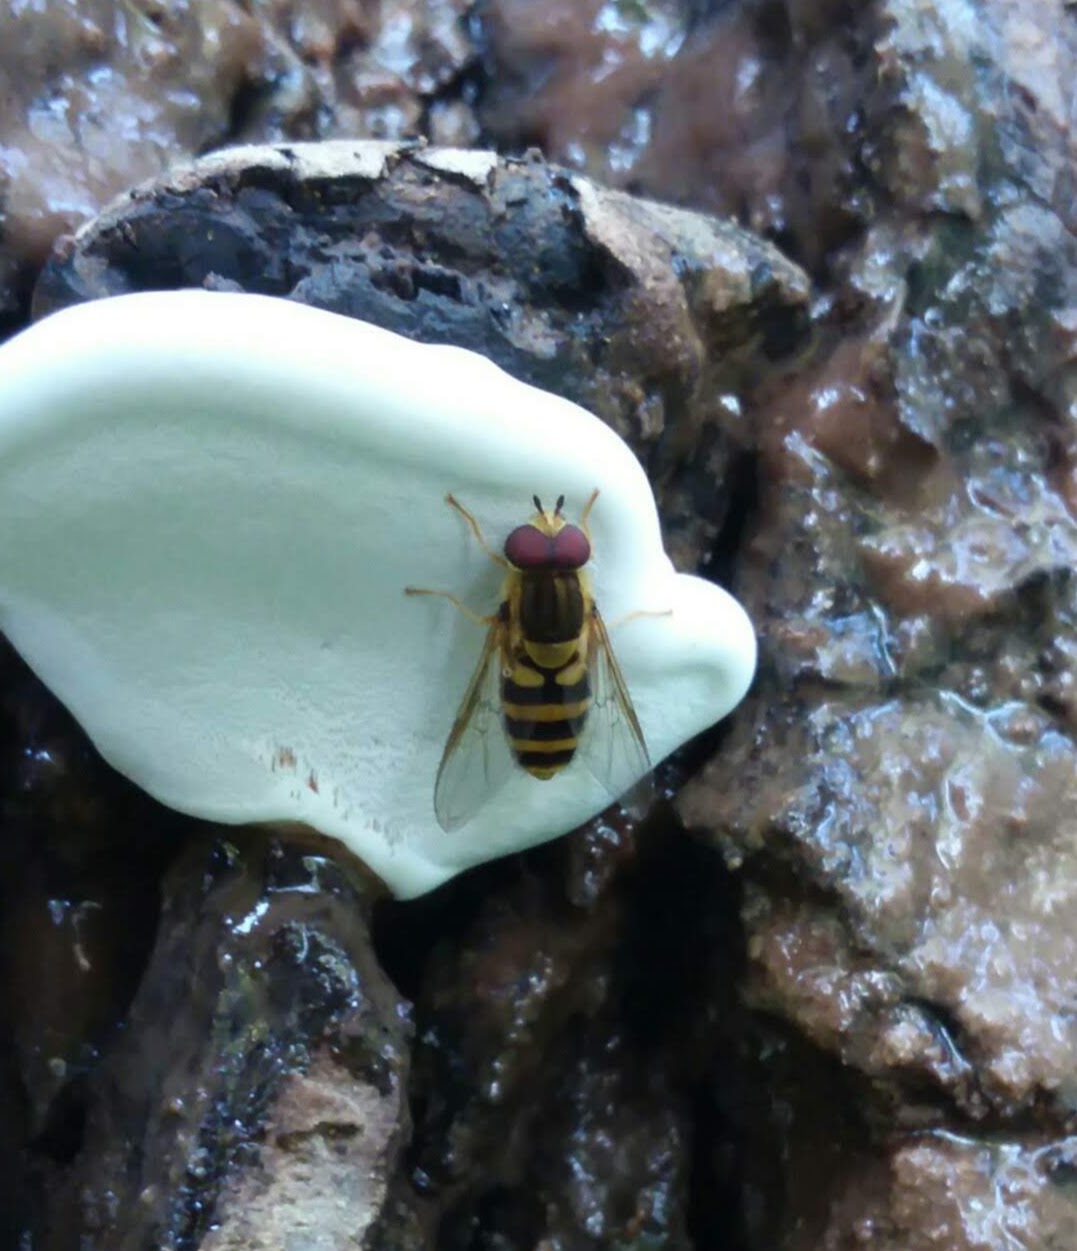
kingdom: Animalia
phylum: Arthropoda
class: Insecta
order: Diptera
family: Syrphidae
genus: Syrphus
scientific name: Syrphus knabi
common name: Eastern flower fly
